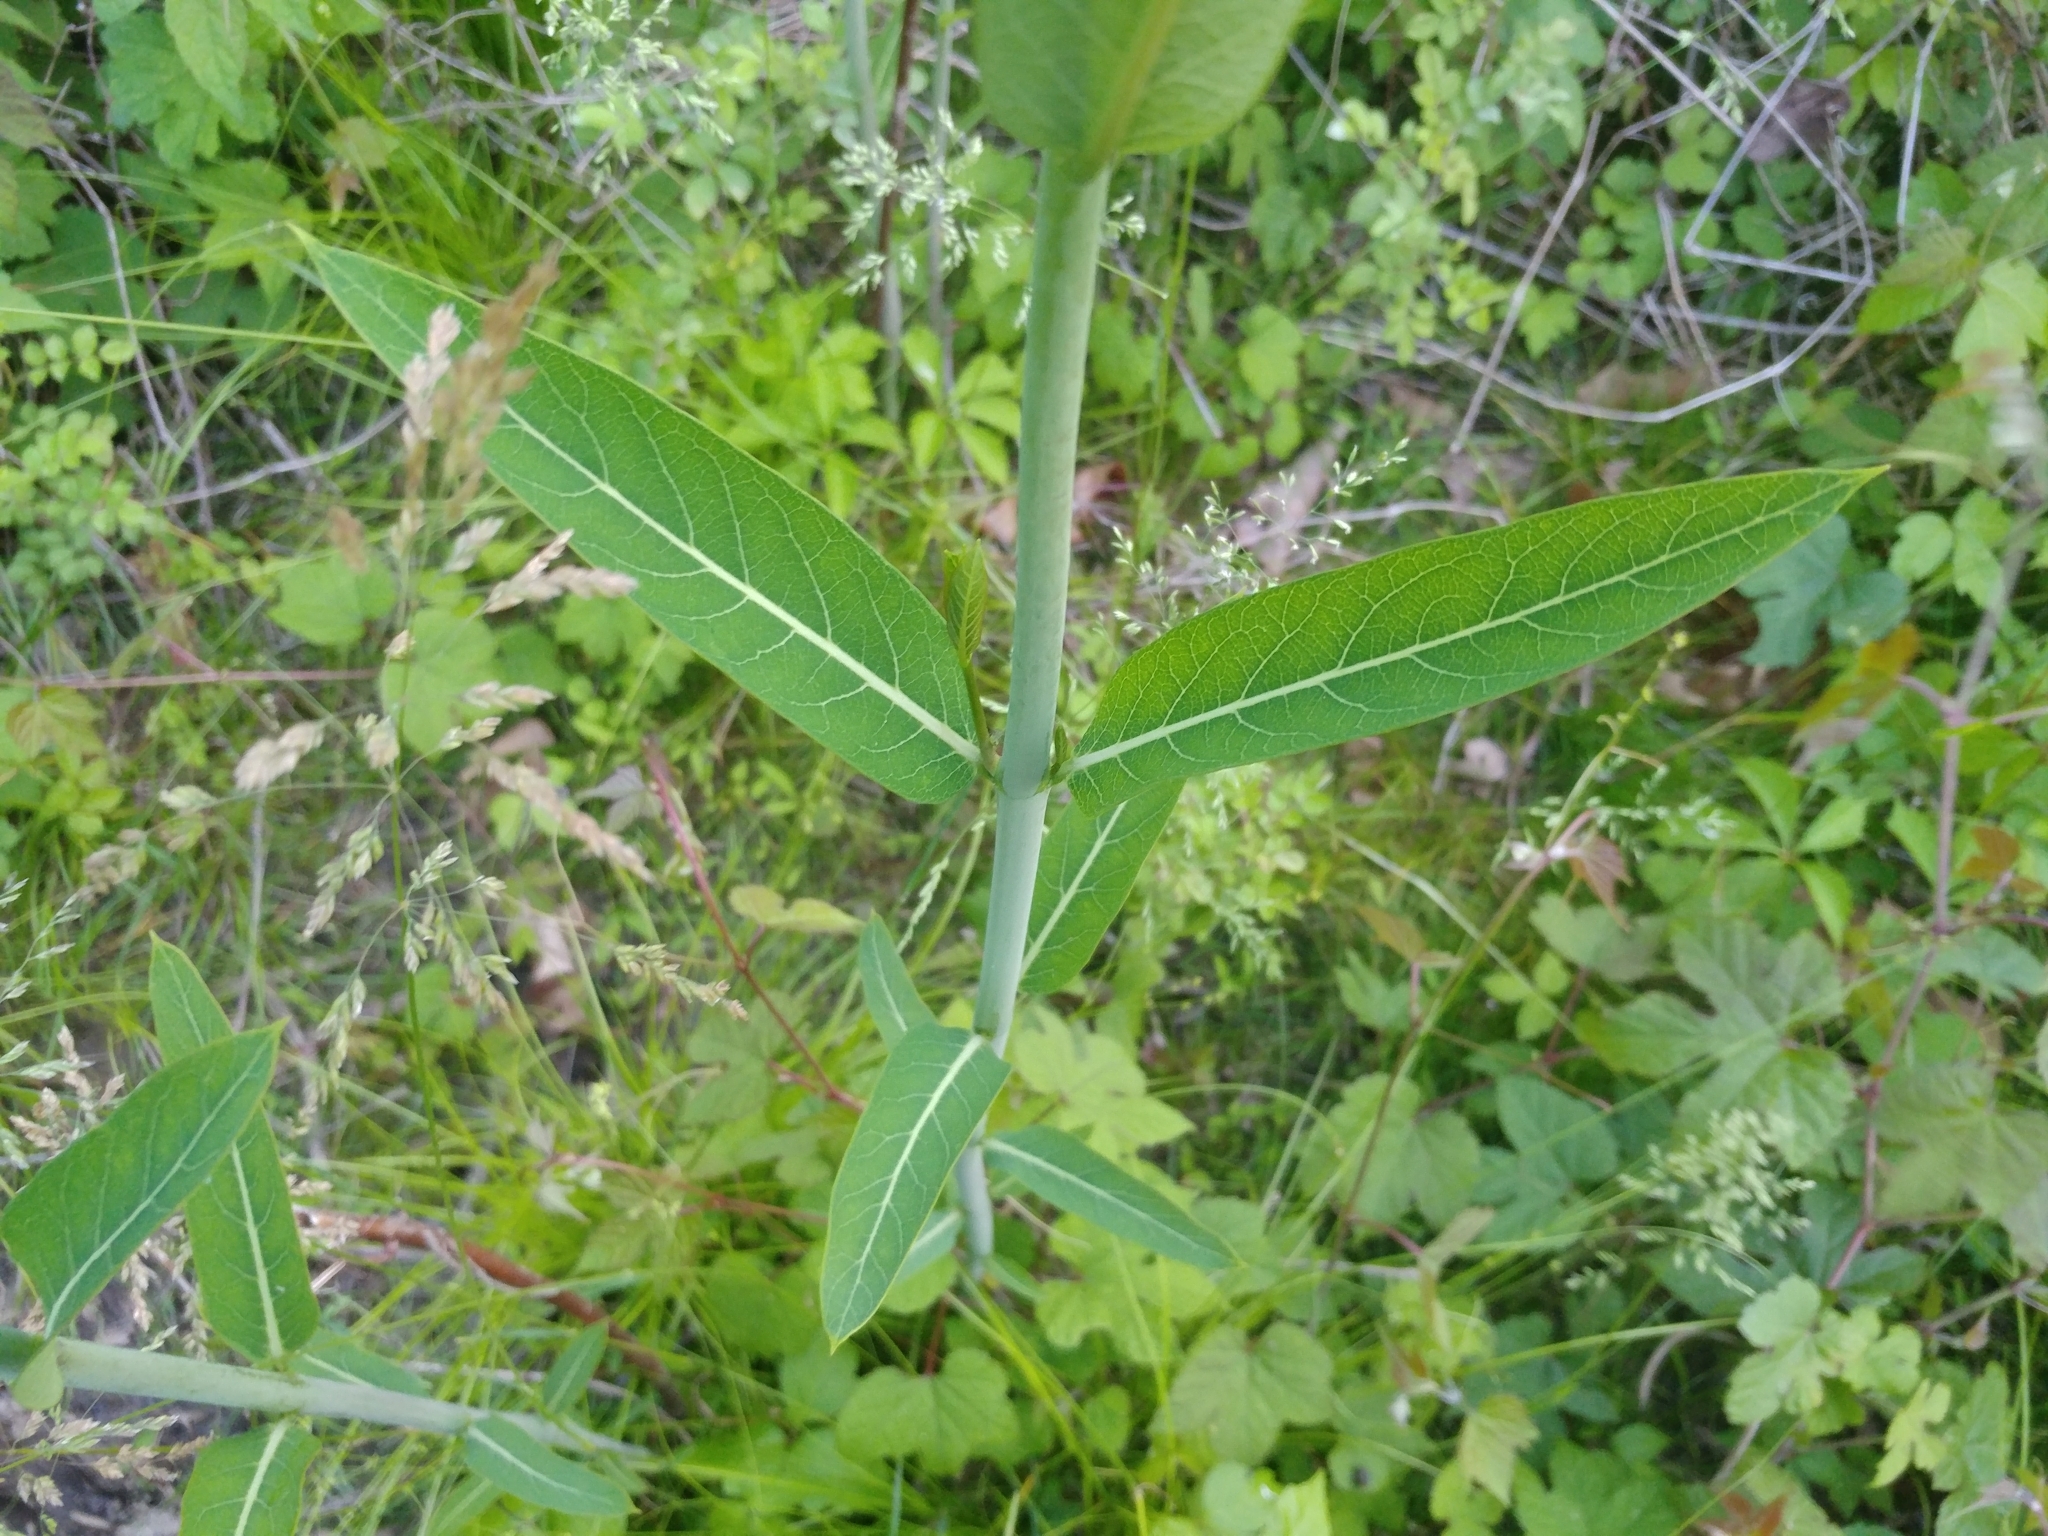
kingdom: Plantae
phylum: Tracheophyta
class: Magnoliopsida
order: Gentianales
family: Apocynaceae
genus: Apocynum
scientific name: Apocynum cannabinum
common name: Hemp dogbane
